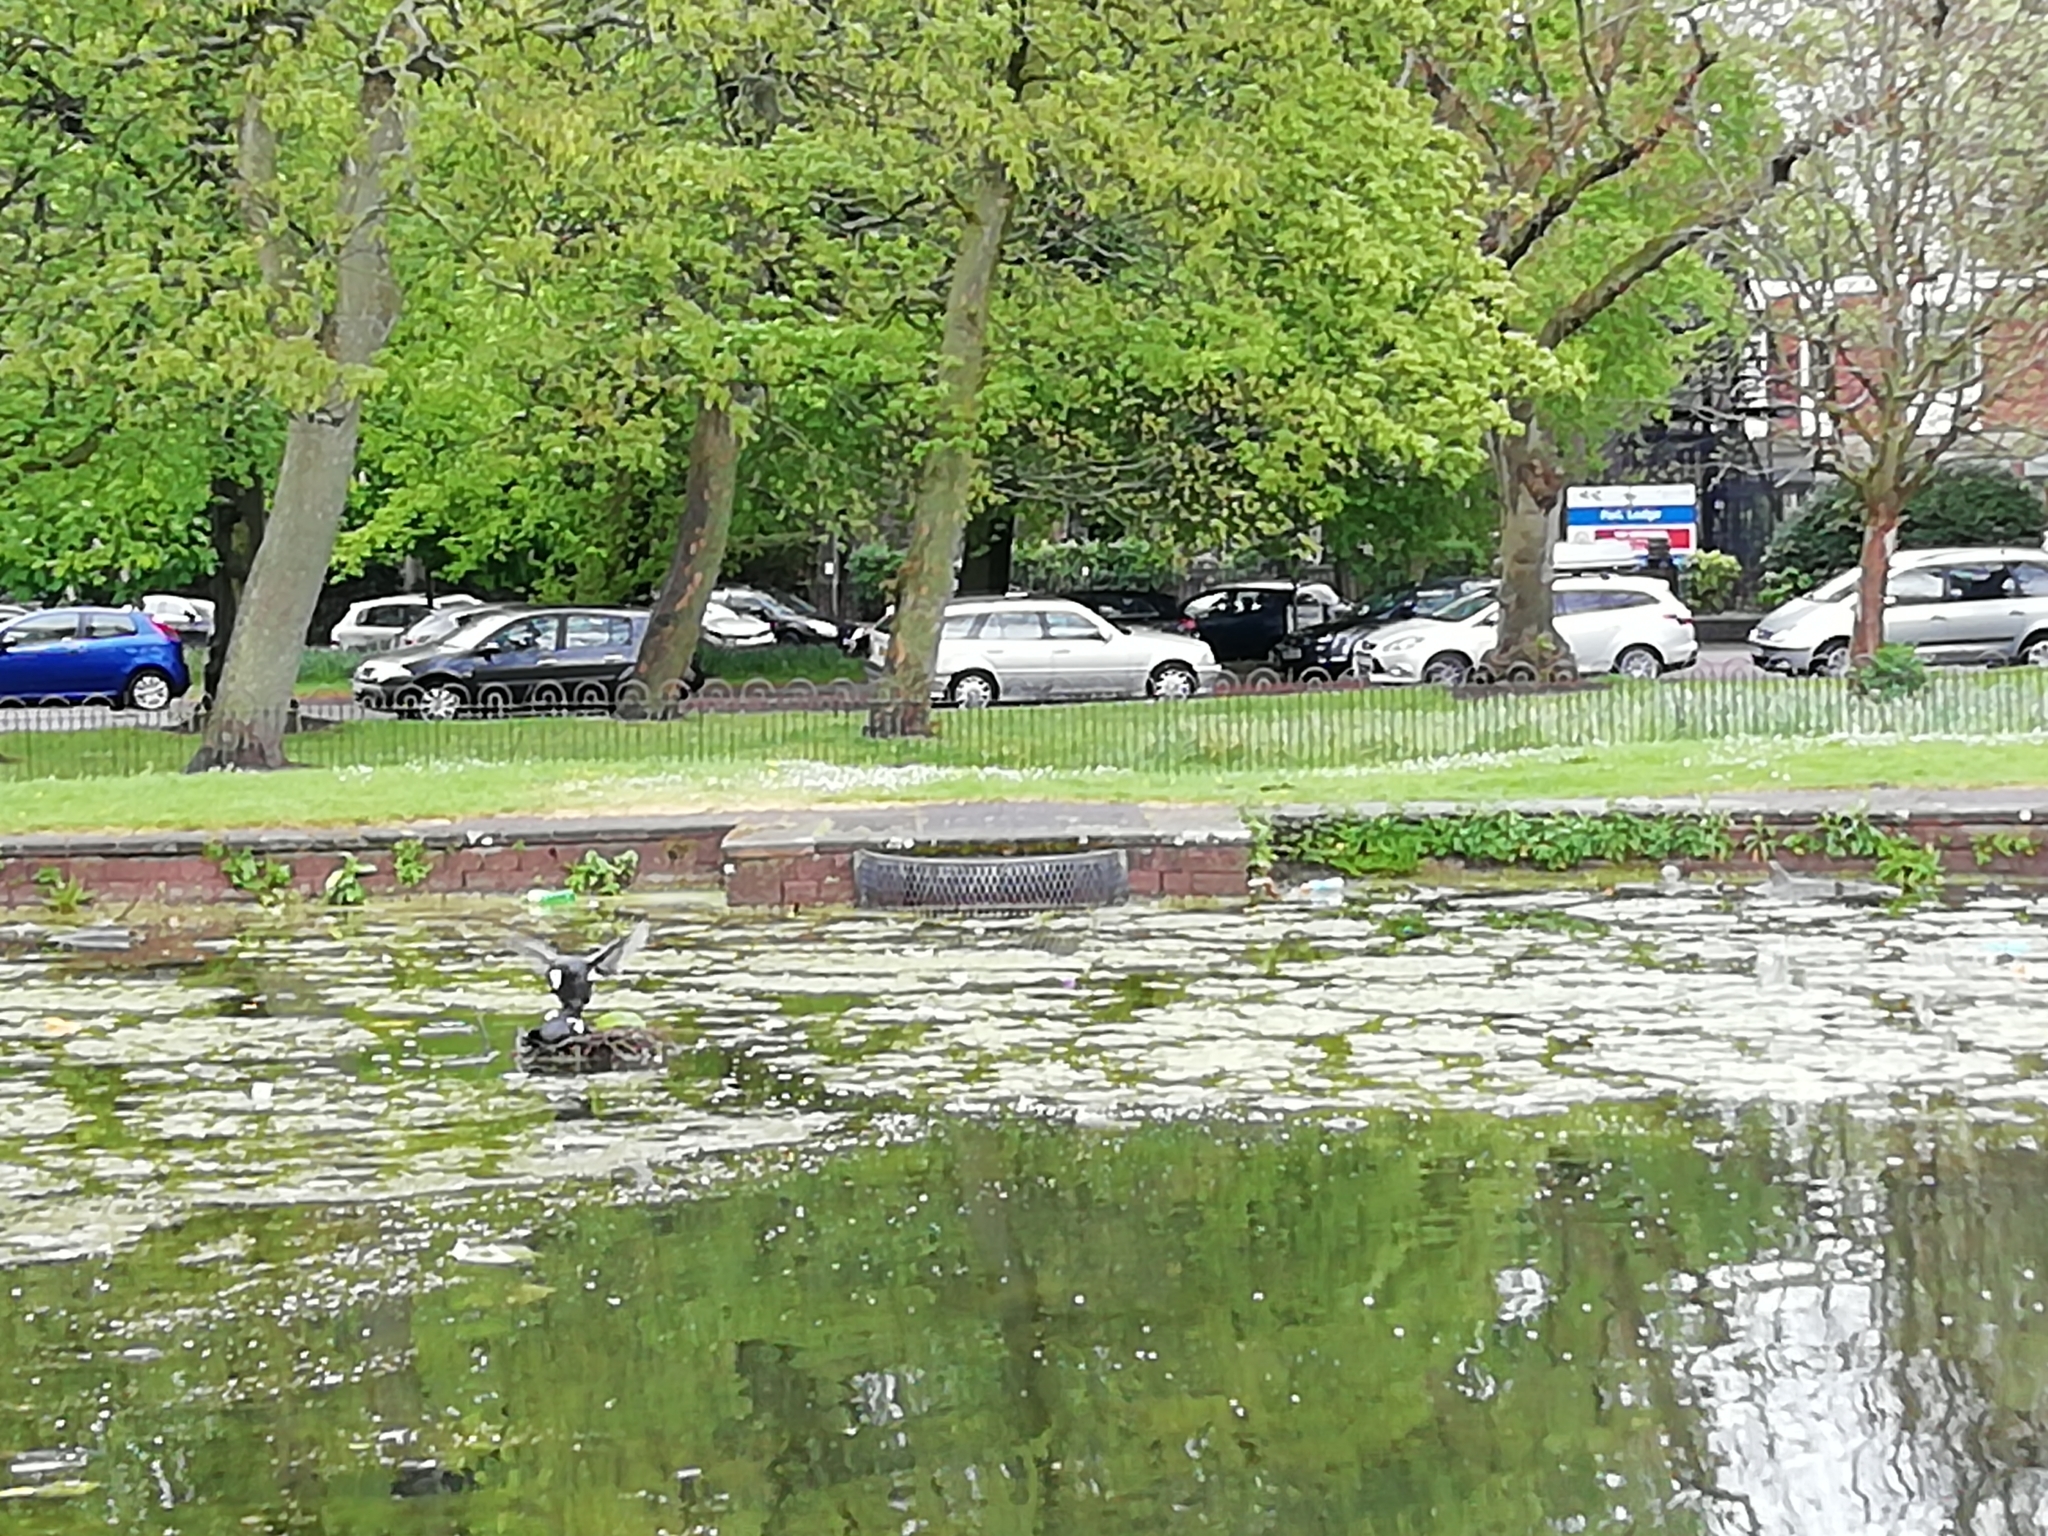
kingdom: Animalia
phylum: Chordata
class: Aves
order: Gruiformes
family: Rallidae
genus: Fulica
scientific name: Fulica atra
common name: Eurasian coot
